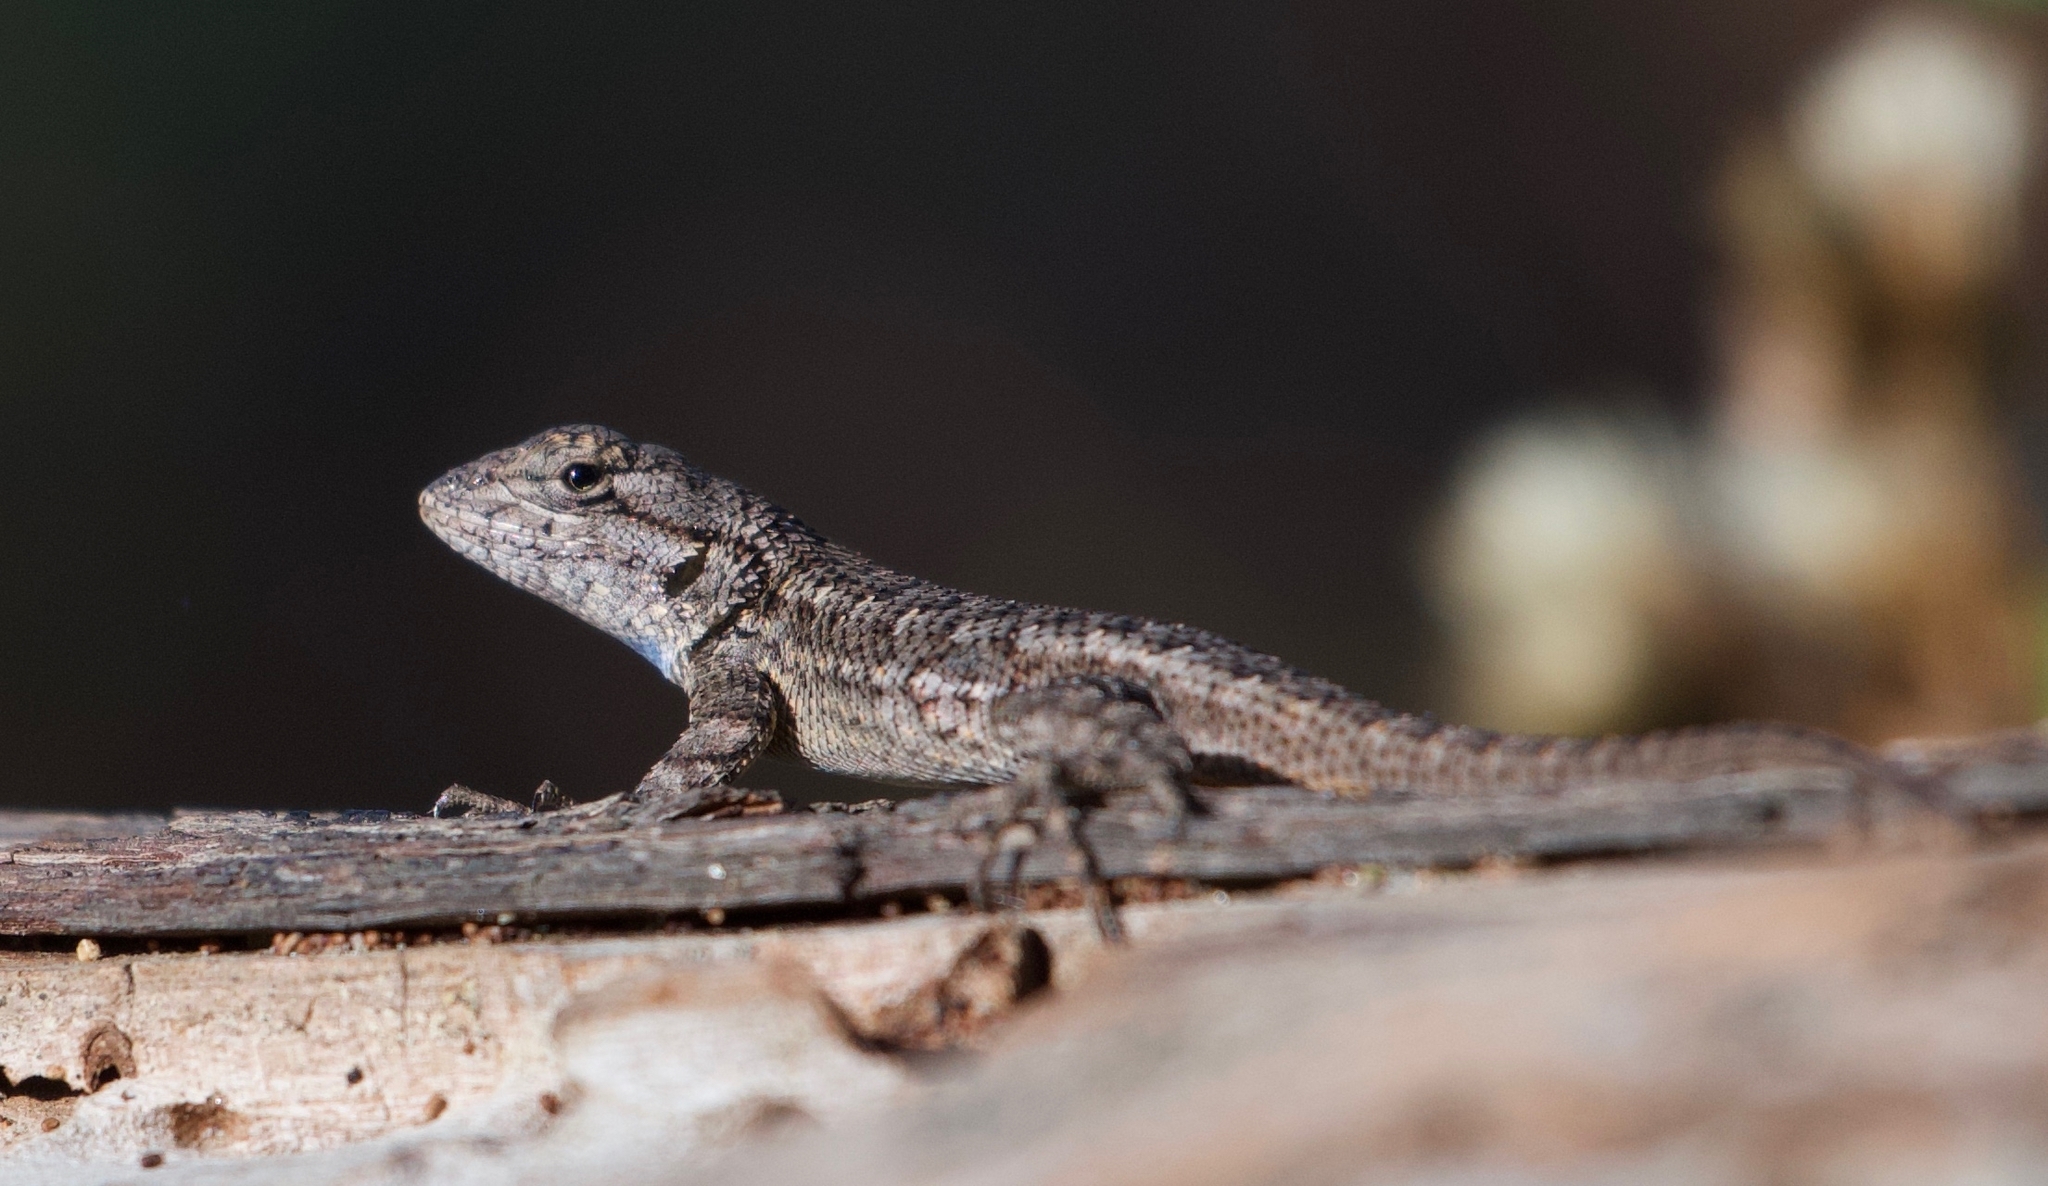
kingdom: Animalia
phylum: Chordata
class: Squamata
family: Phrynosomatidae
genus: Sceloporus
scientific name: Sceloporus occidentalis
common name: Western fence lizard
